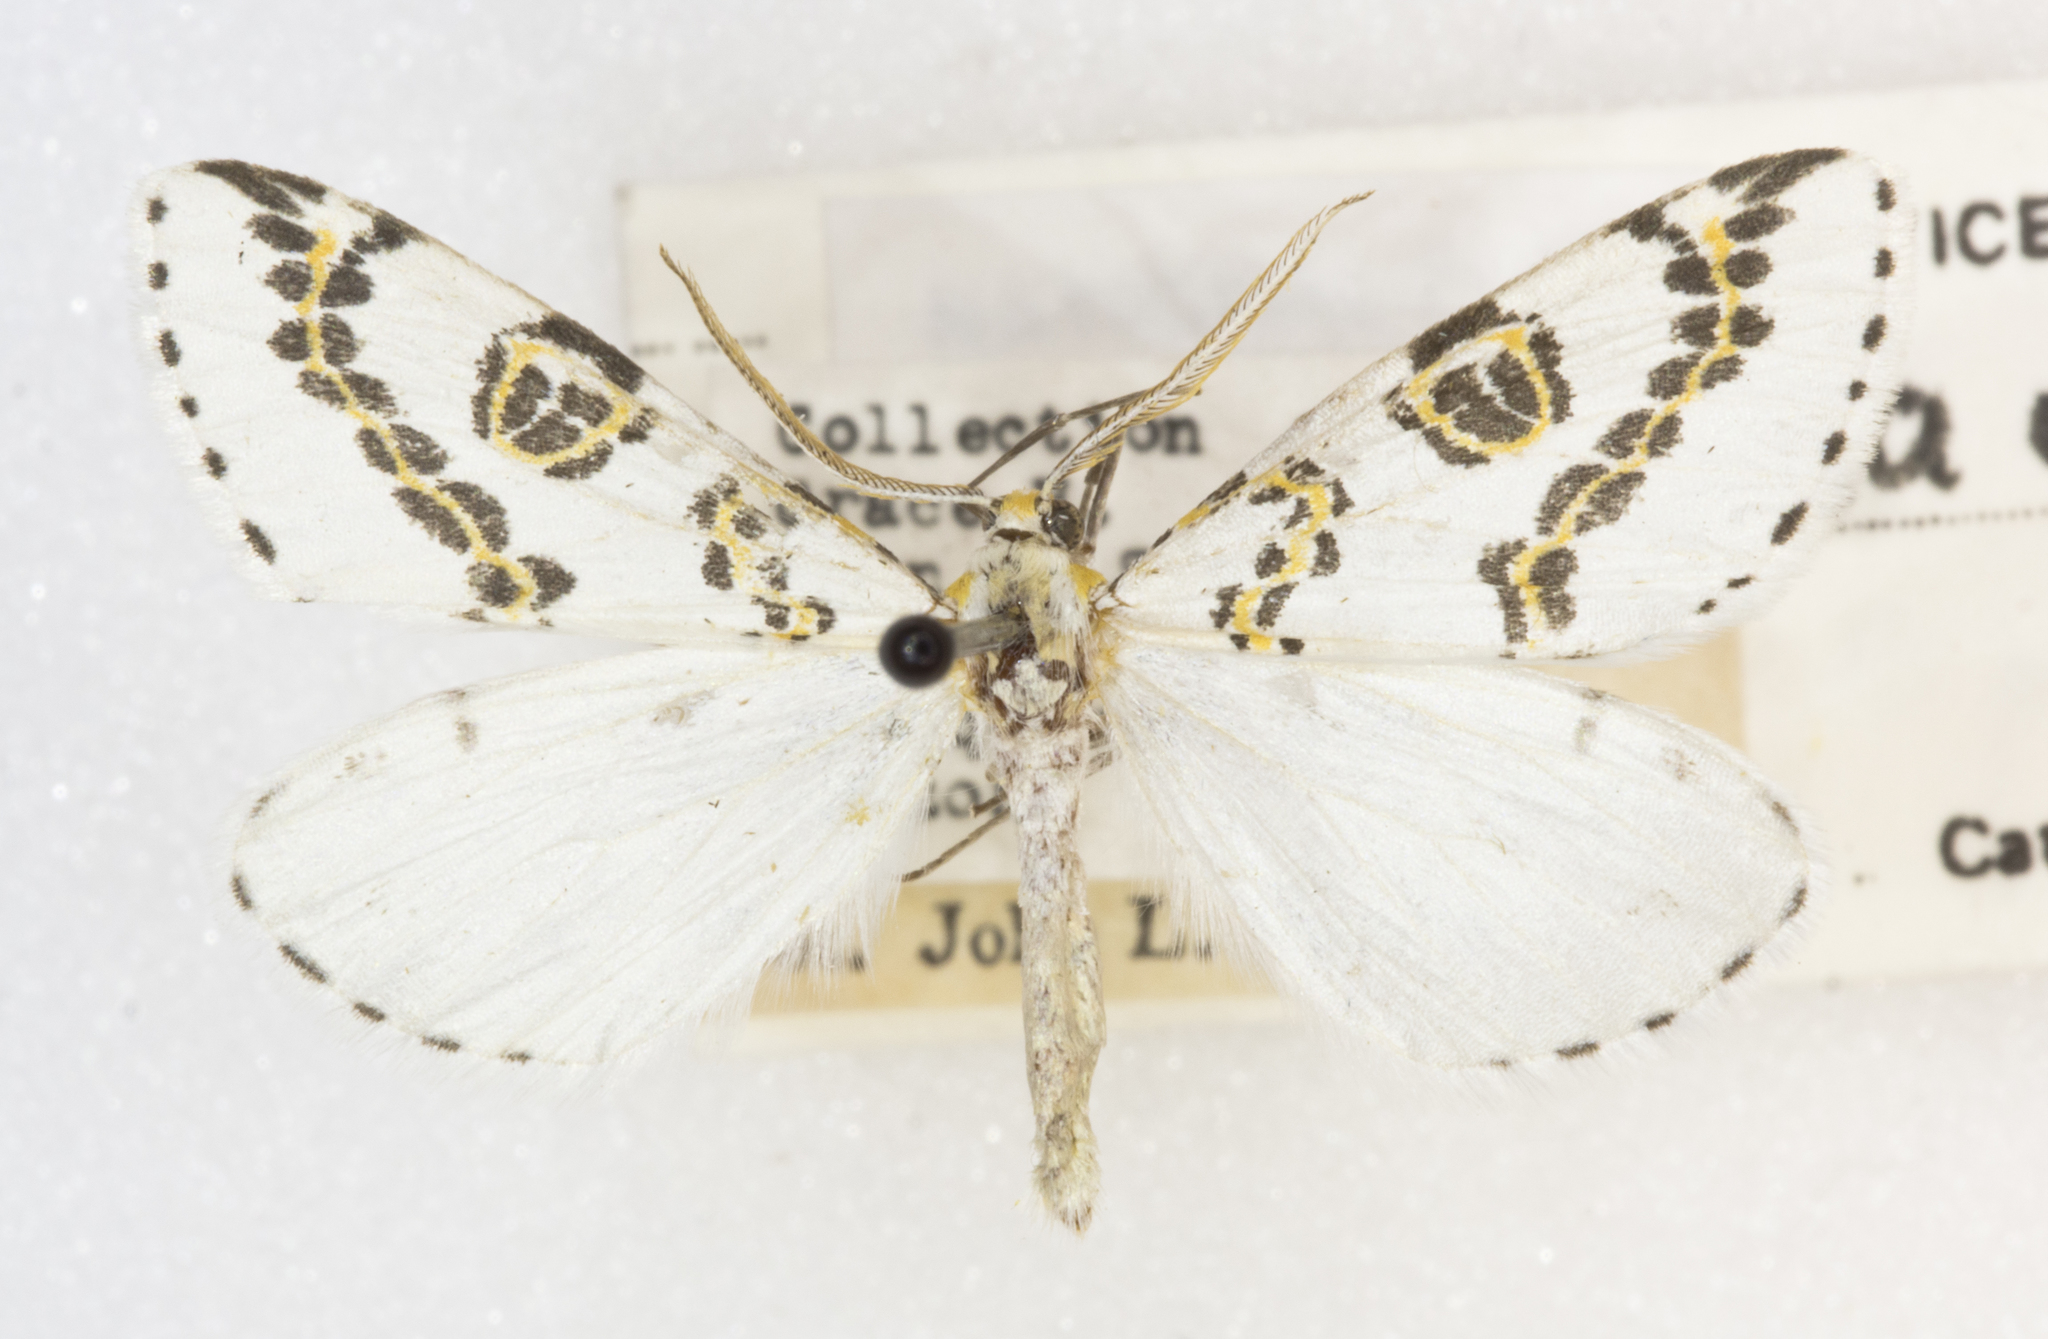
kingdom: Animalia
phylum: Arthropoda
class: Insecta
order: Lepidoptera
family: Geometridae
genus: Philtraea
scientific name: Philtraea elegantaria
